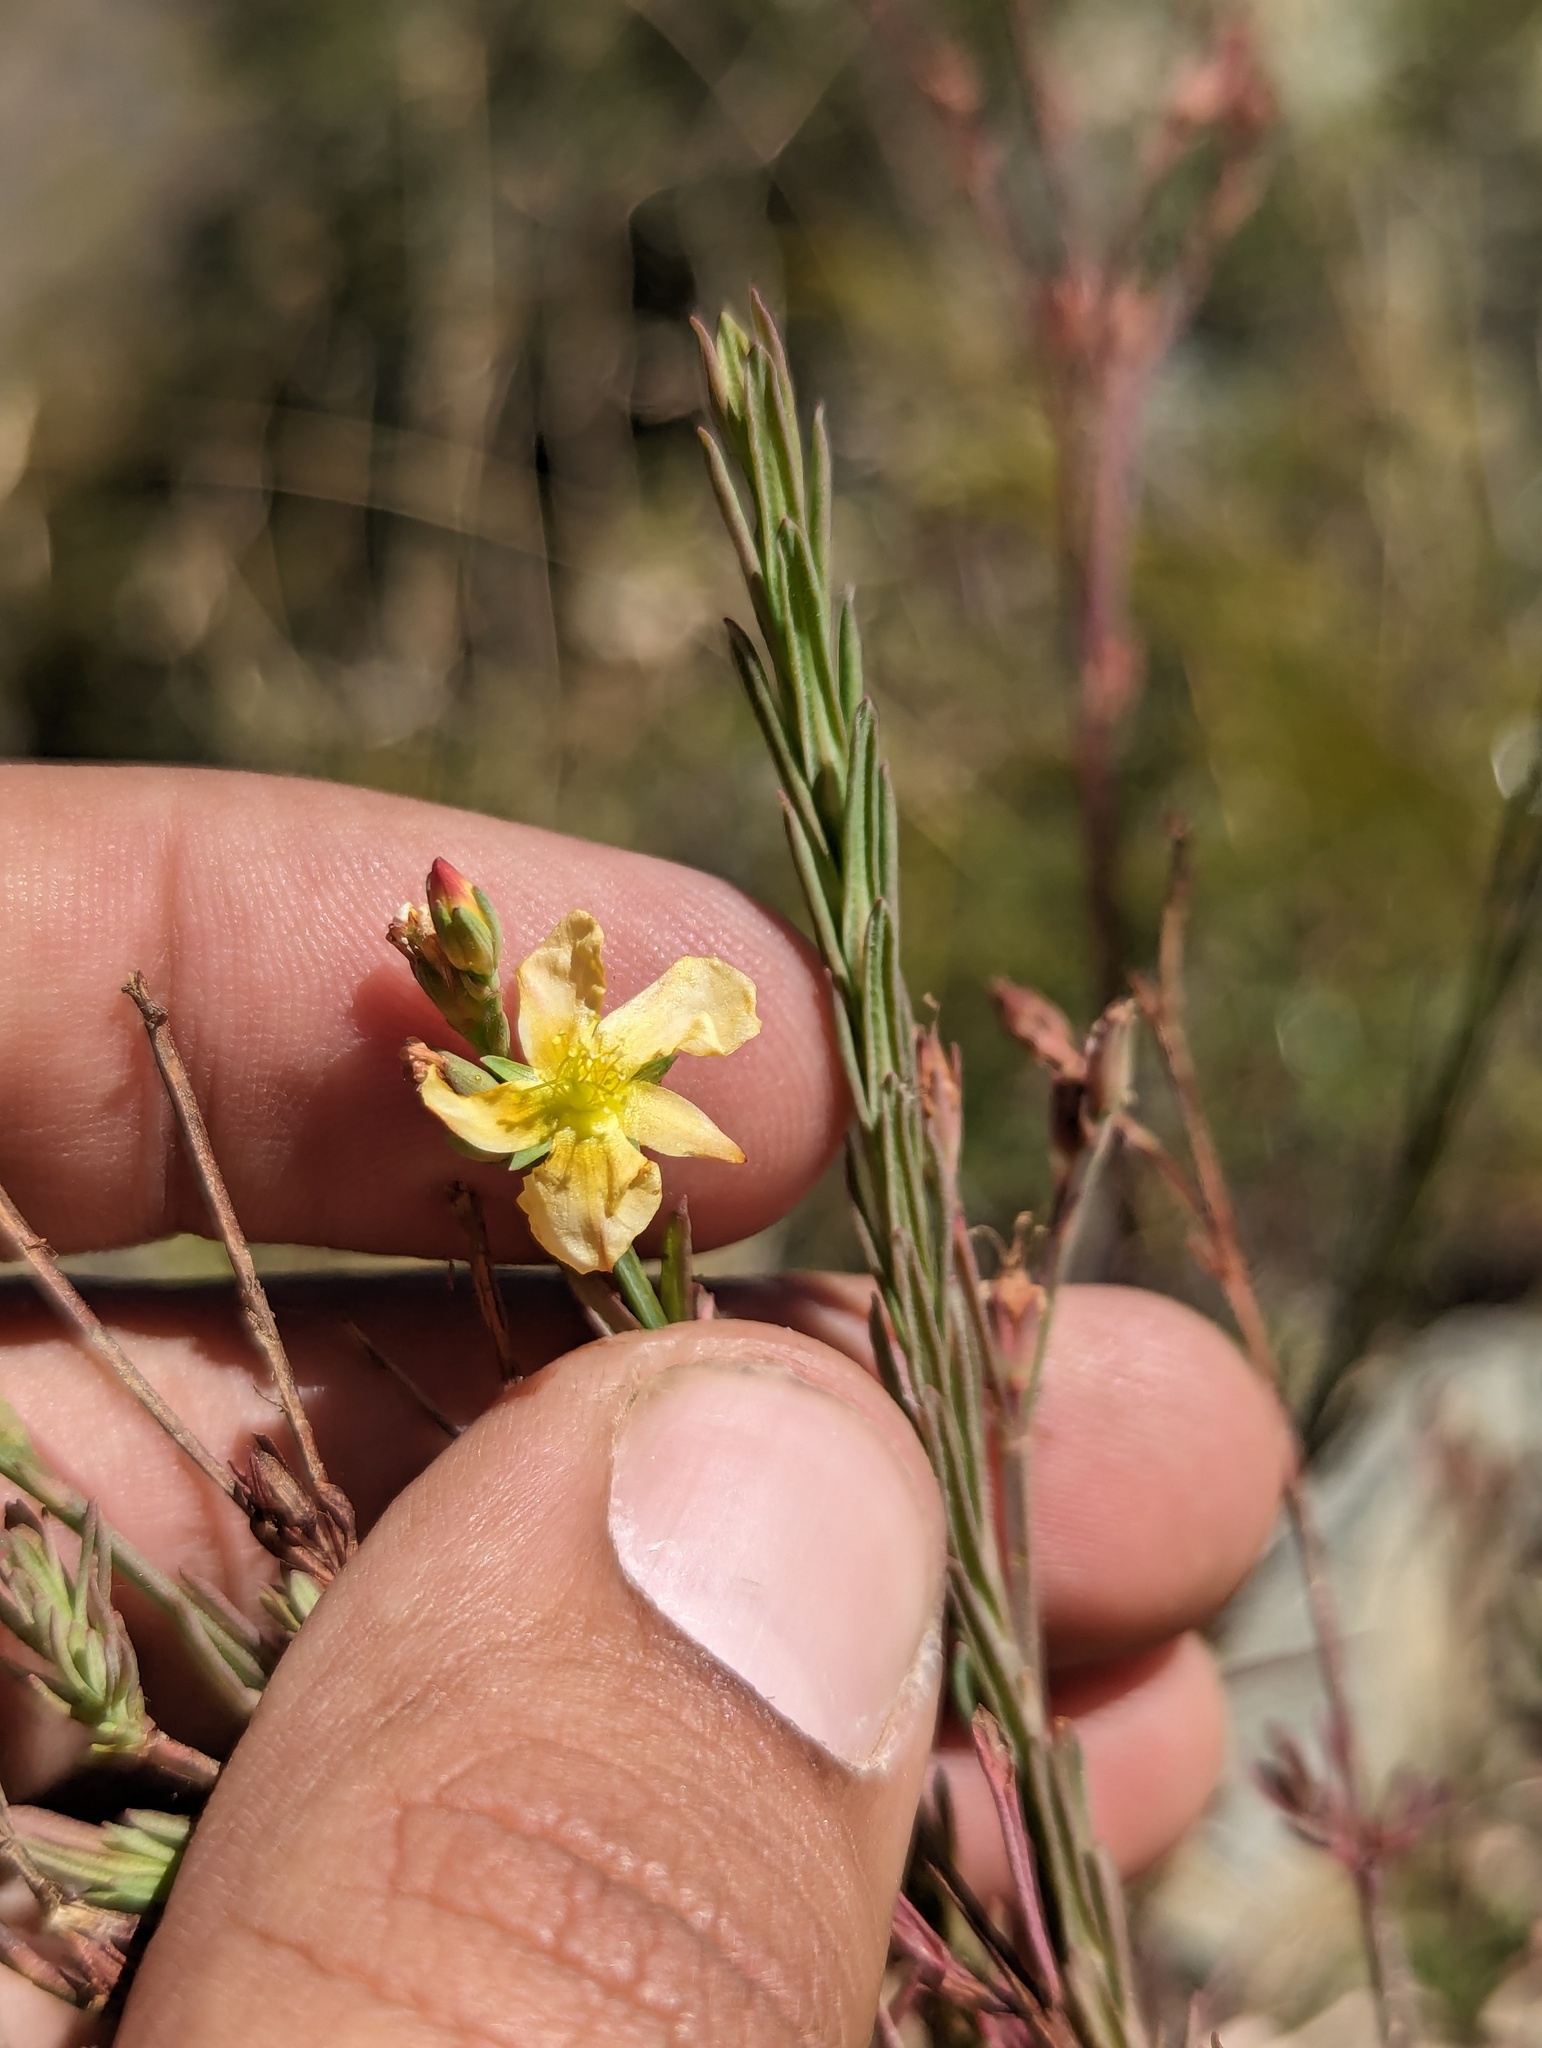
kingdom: Plantae
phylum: Tracheophyta
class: Magnoliopsida
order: Malpighiales
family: Hypericaceae
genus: Hypericum
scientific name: Hypericum peninsulare
